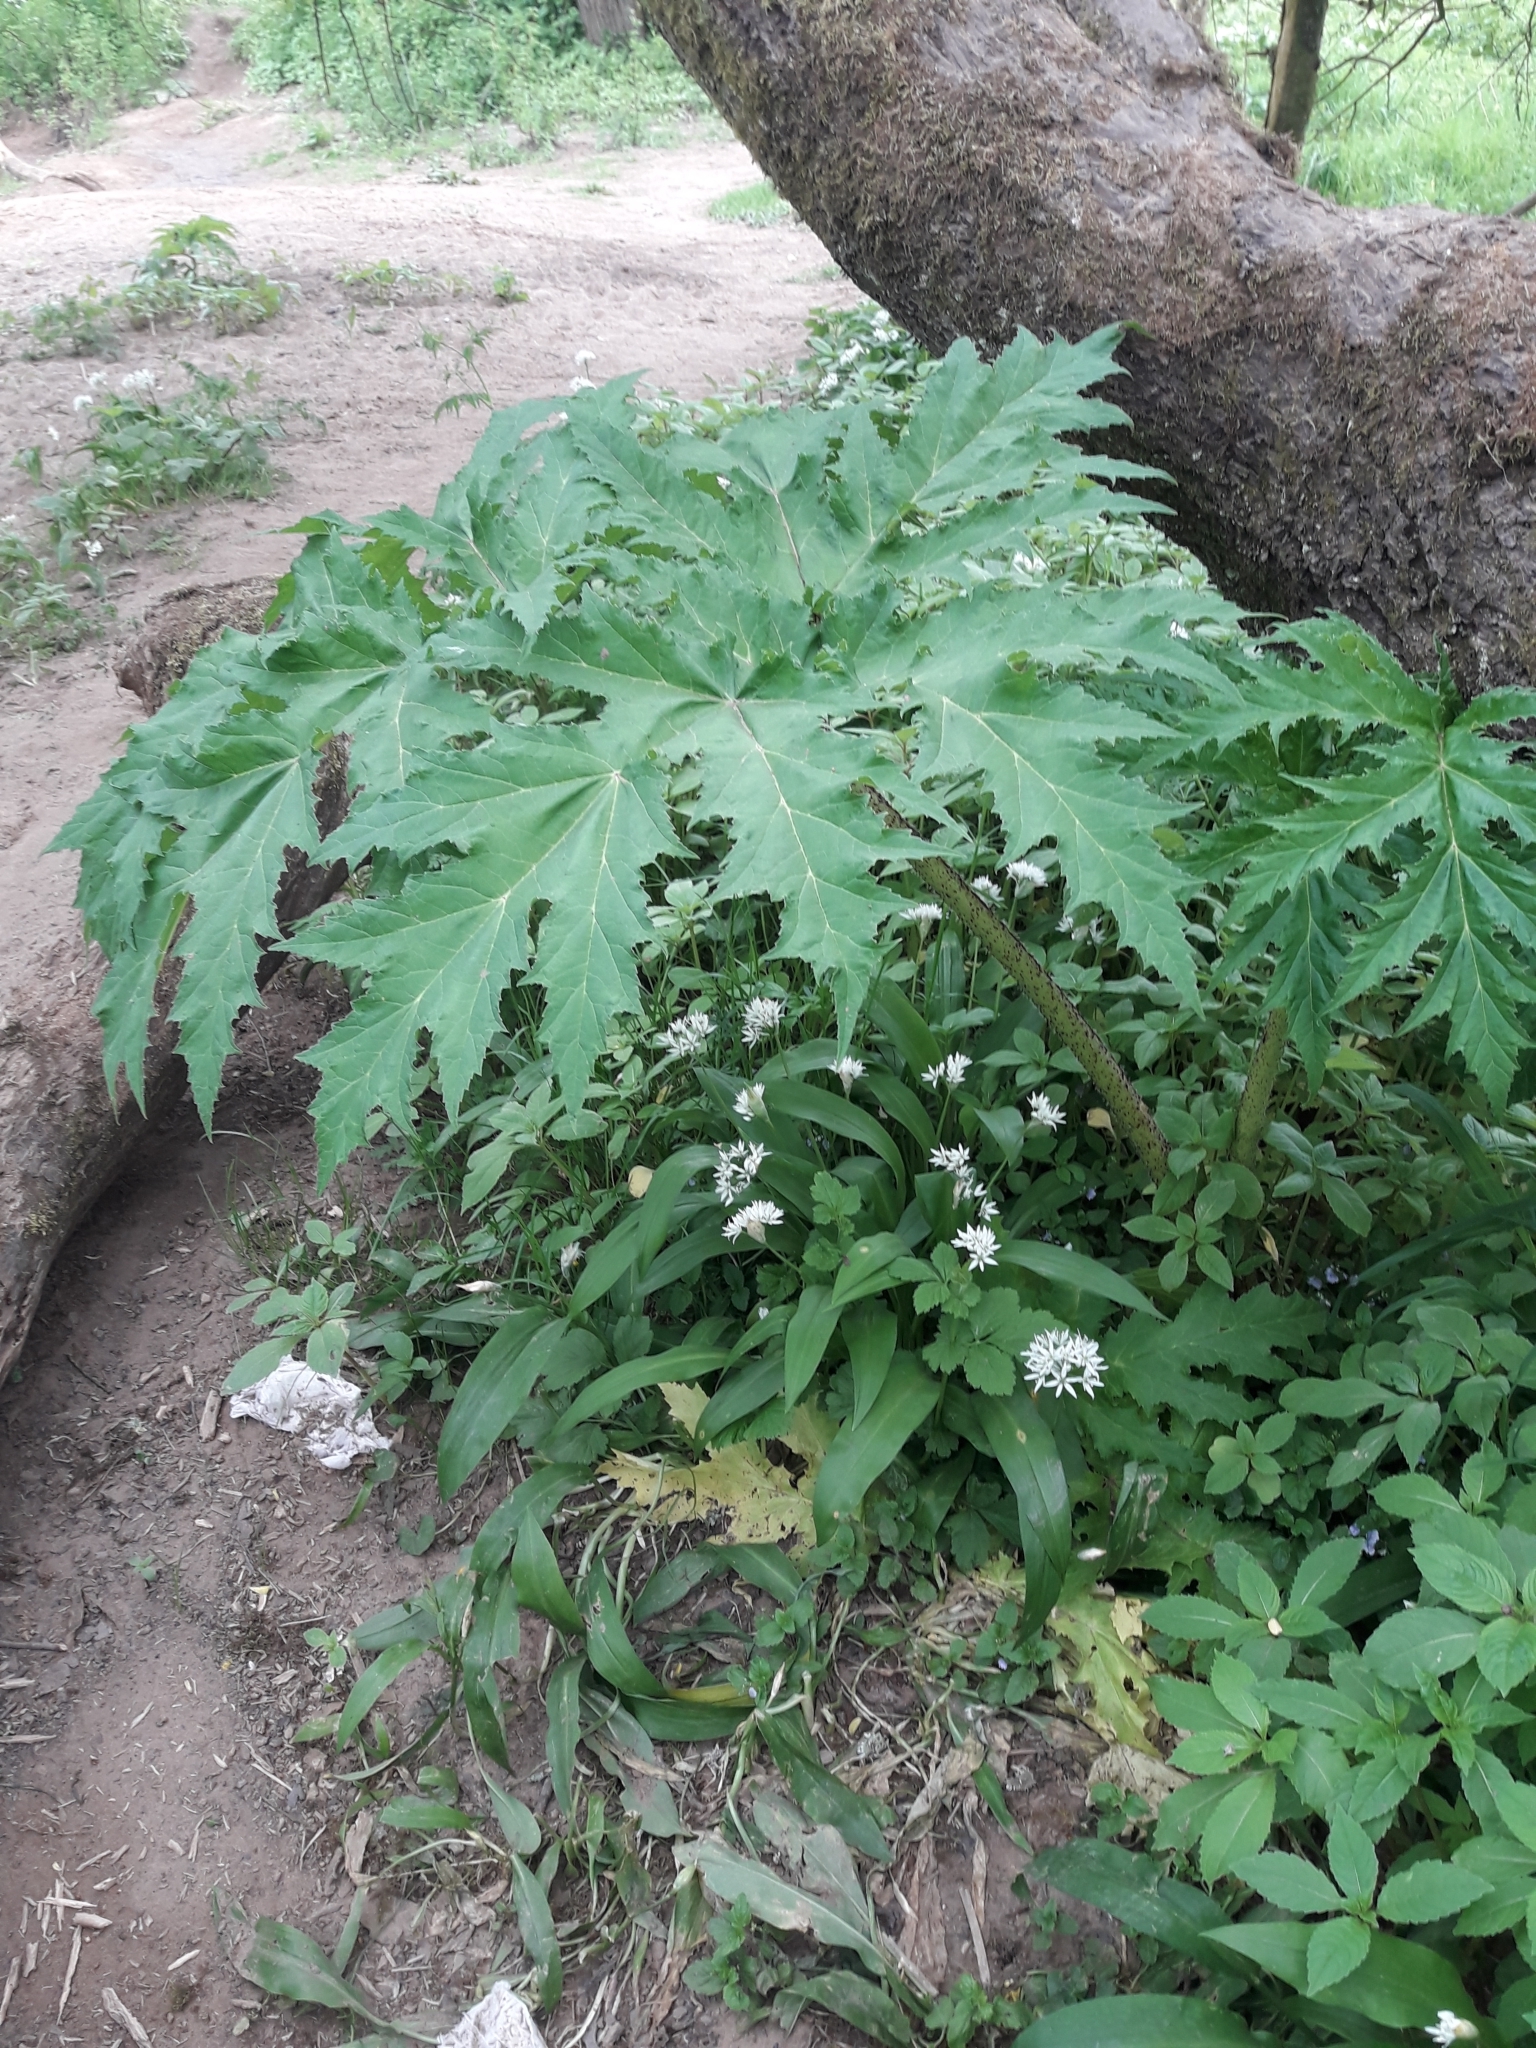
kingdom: Plantae
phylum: Tracheophyta
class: Magnoliopsida
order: Apiales
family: Apiaceae
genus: Heracleum
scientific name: Heracleum mantegazzianum
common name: Giant hogweed
